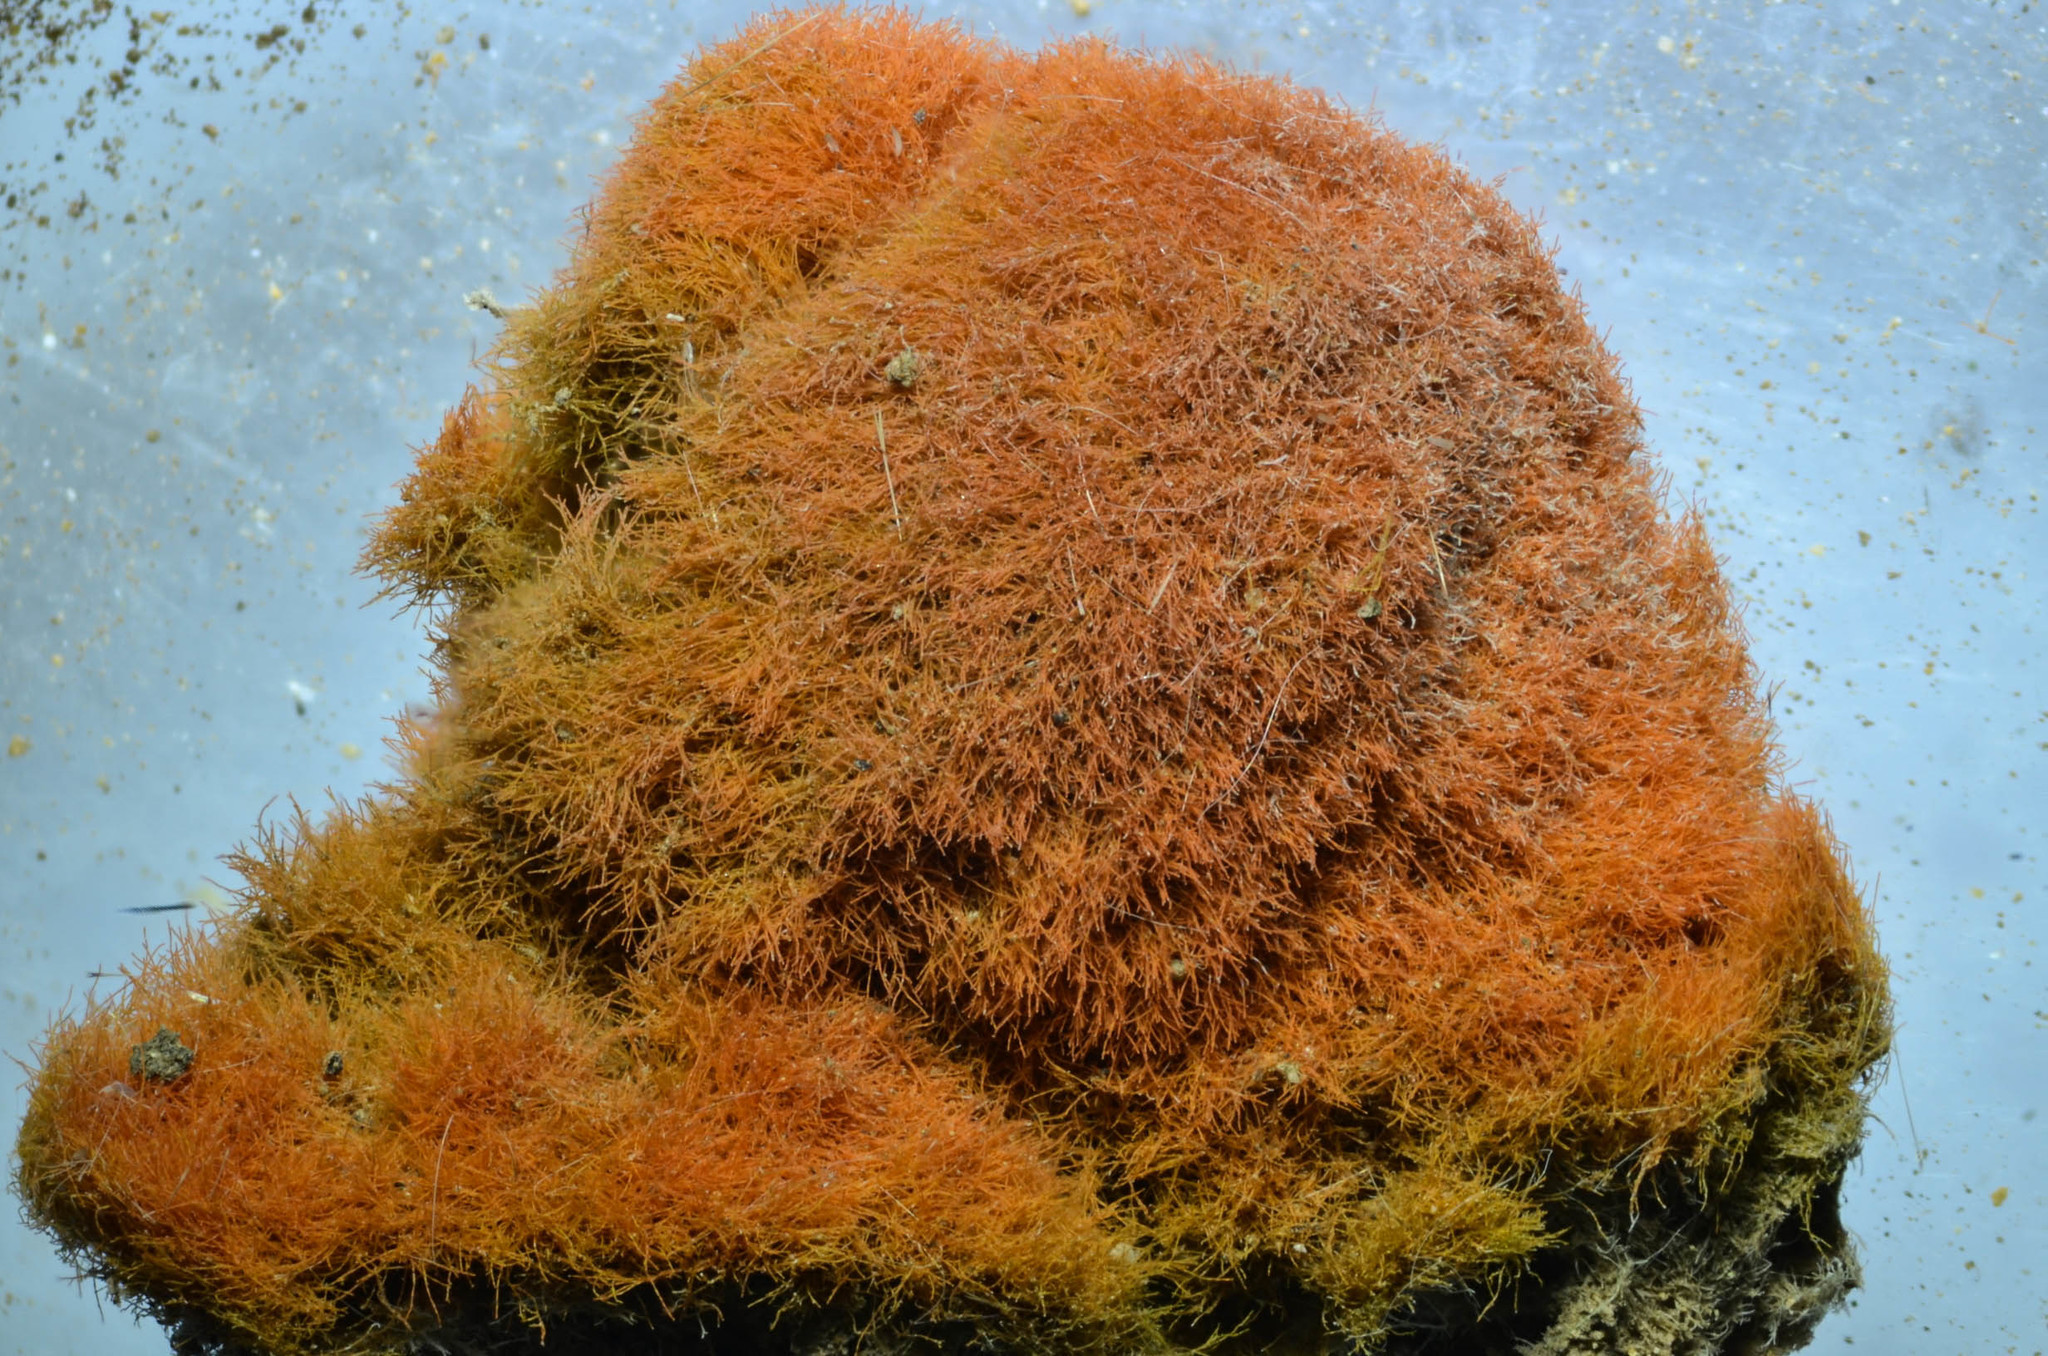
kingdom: Plantae
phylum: Chlorophyta
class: Ulvophyceae
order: Trentepohliales
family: Trentepohliaceae
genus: Trentepohlia
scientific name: Trentepohlia aurea
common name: Orange rock hair
